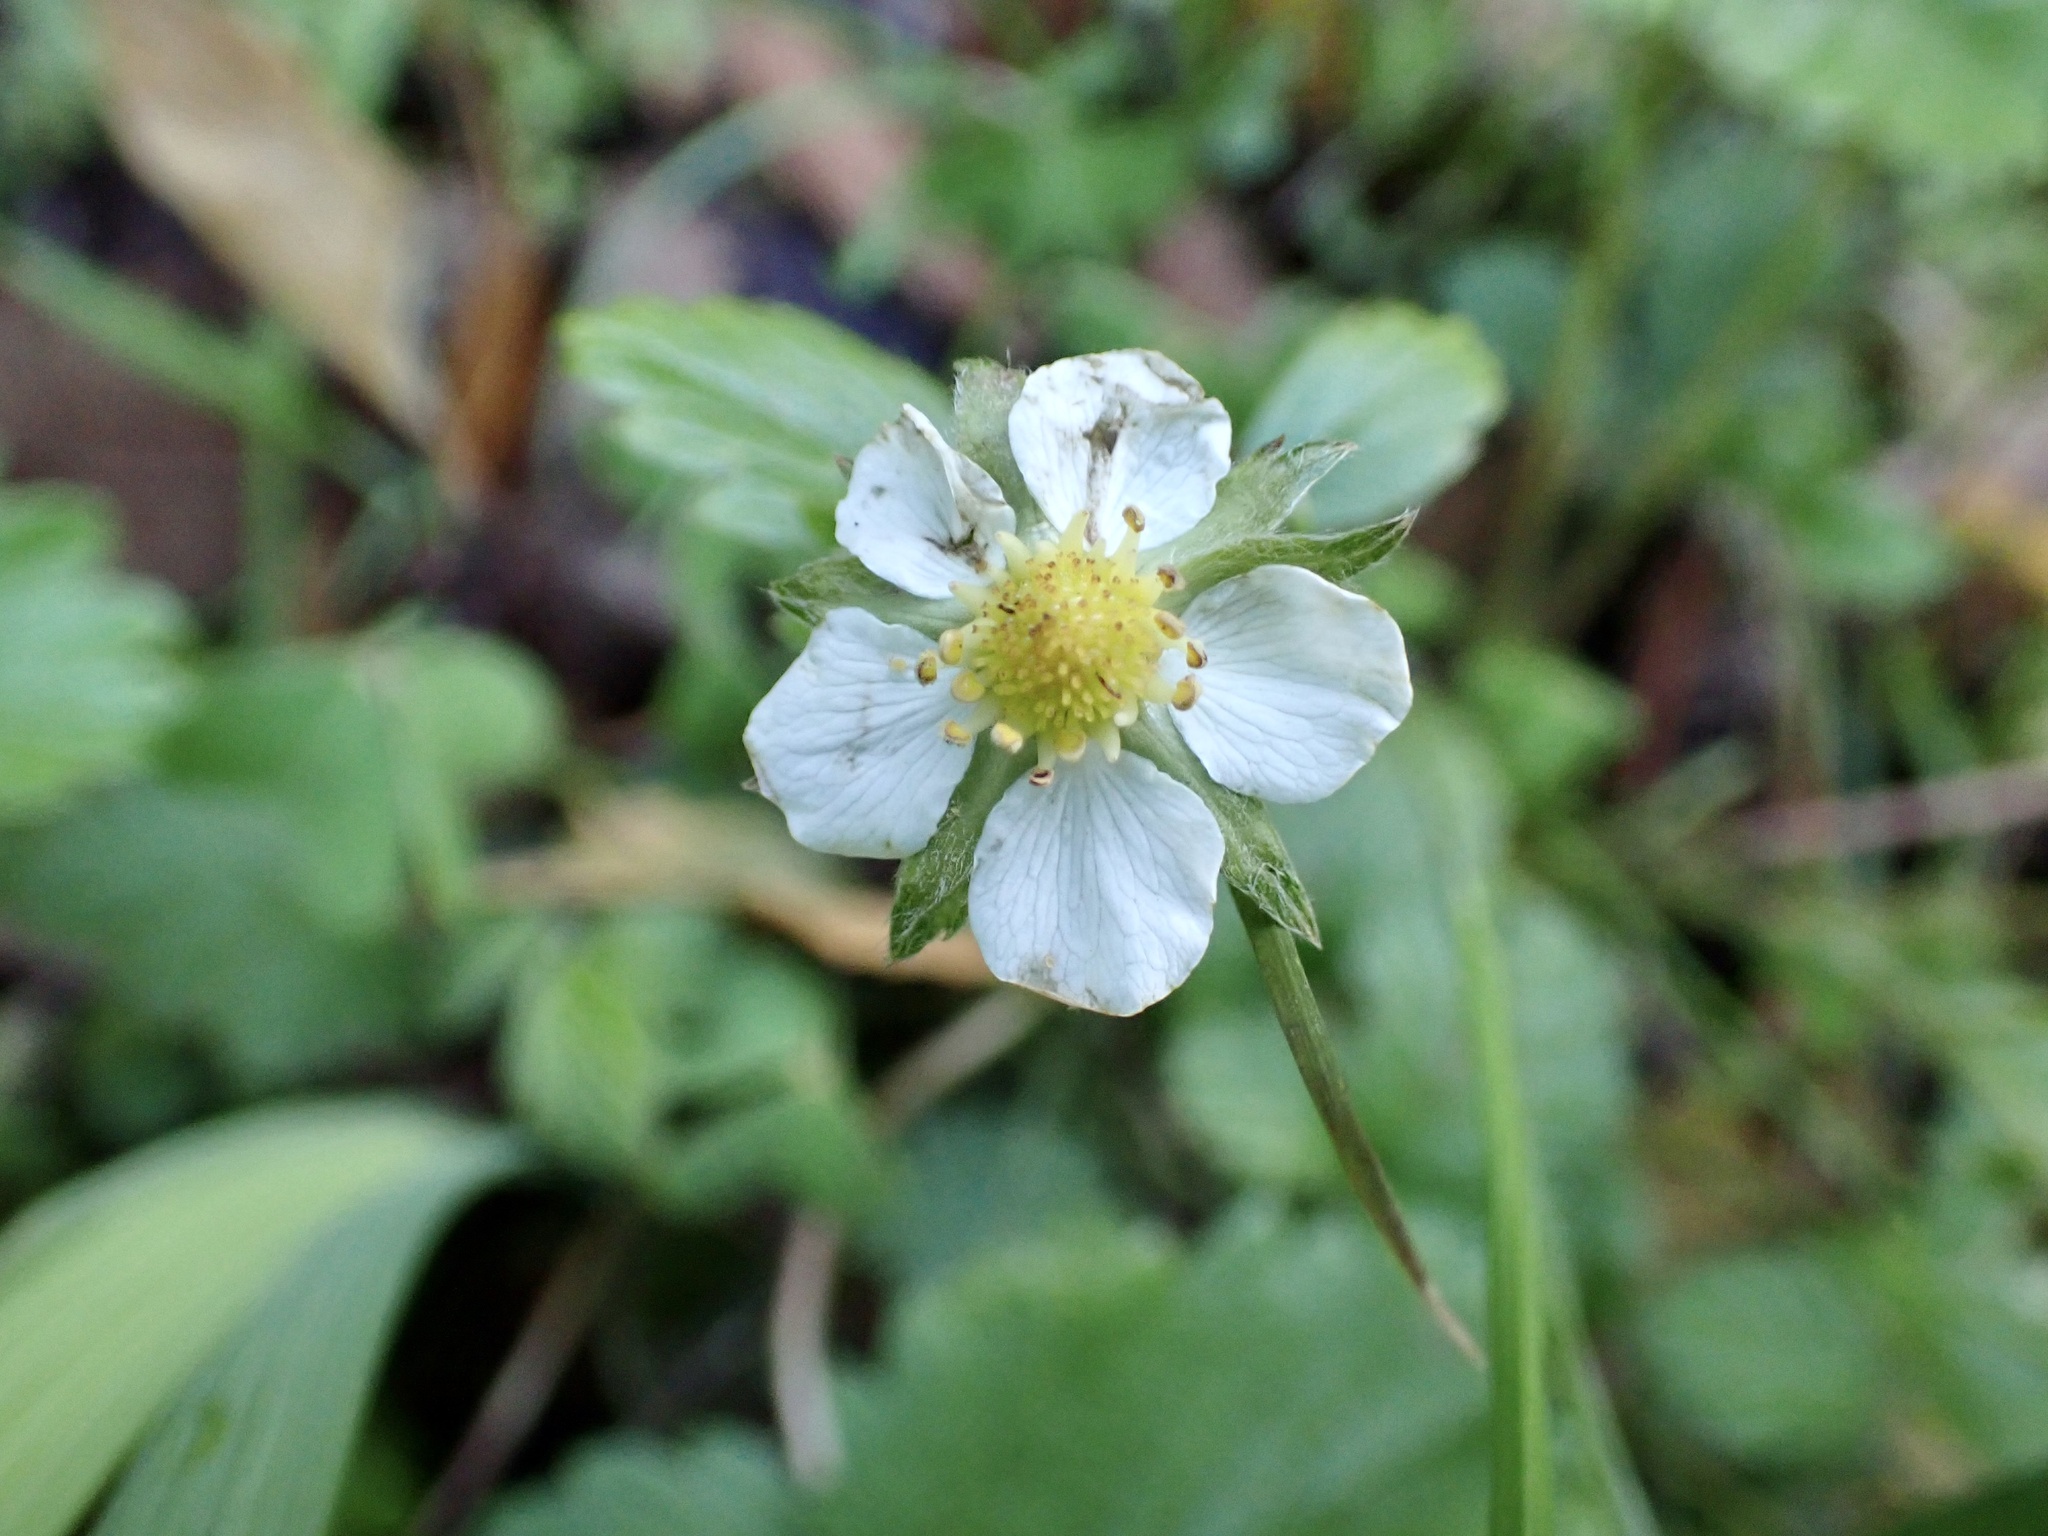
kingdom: Plantae
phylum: Tracheophyta
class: Magnoliopsida
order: Rosales
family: Rosaceae
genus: Fragaria
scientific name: Fragaria vesca
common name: Wild strawberry
